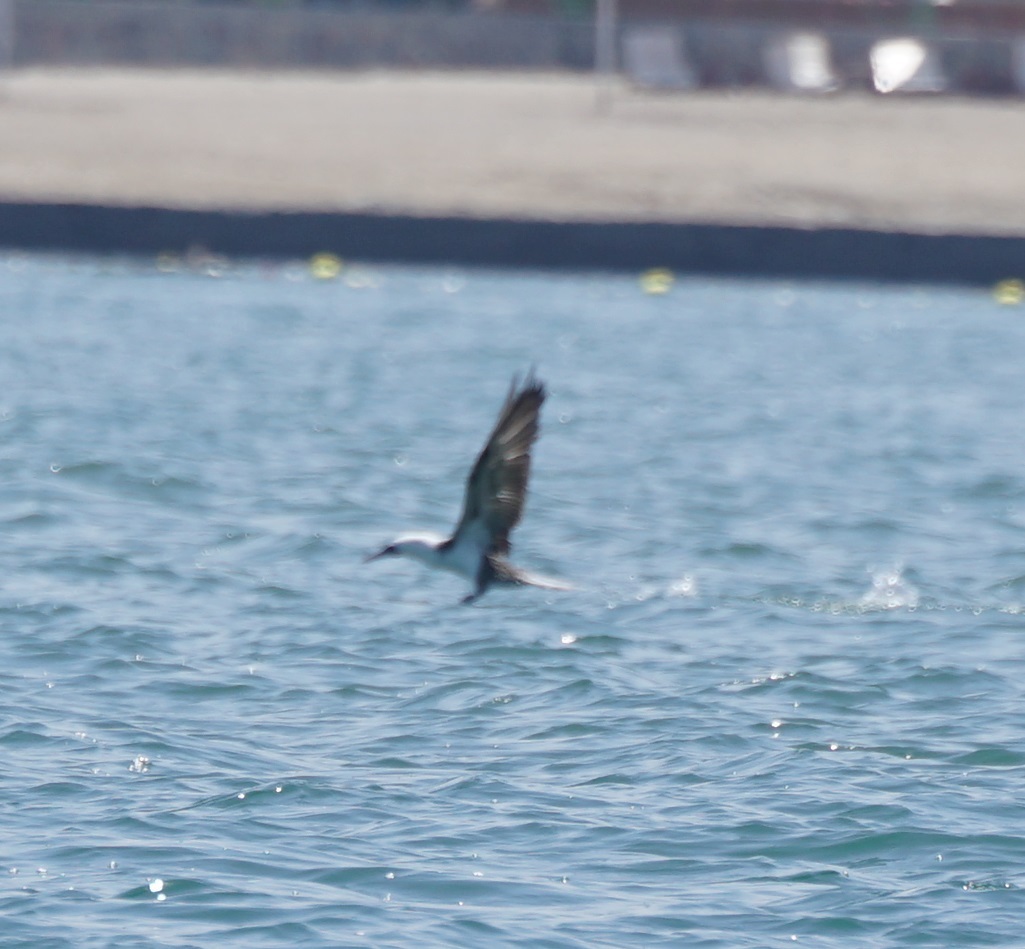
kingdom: Animalia
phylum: Chordata
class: Aves
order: Suliformes
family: Sulidae
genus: Sula
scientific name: Sula variegata
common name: Peruvian booby
